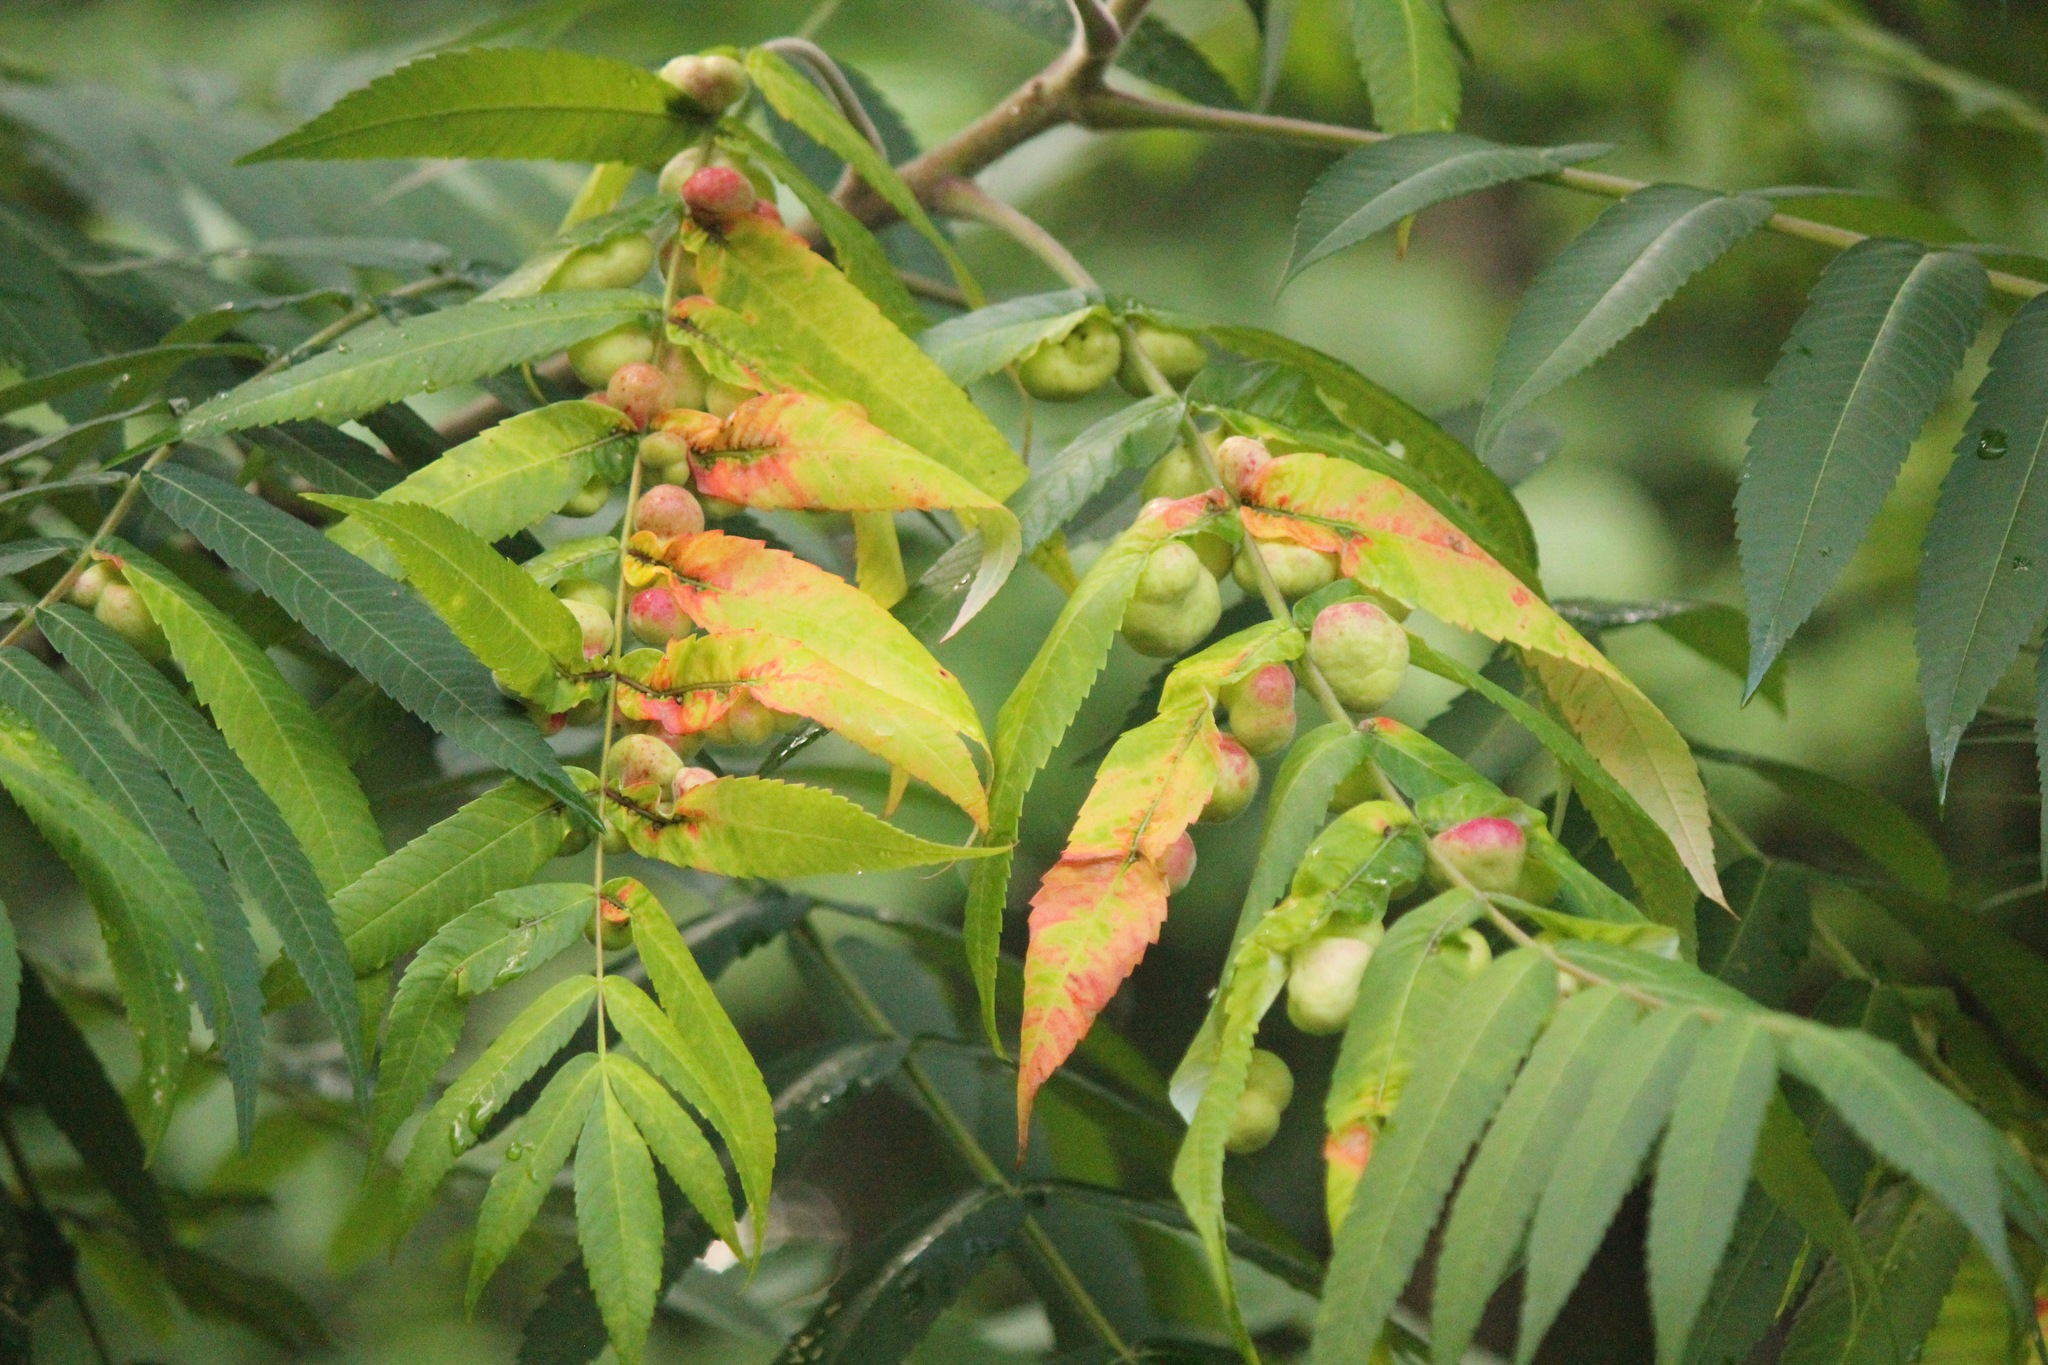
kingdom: Animalia
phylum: Arthropoda
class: Insecta
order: Hemiptera
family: Aphididae
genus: Melaphis
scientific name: Melaphis rhois
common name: Sumac gall aphid
